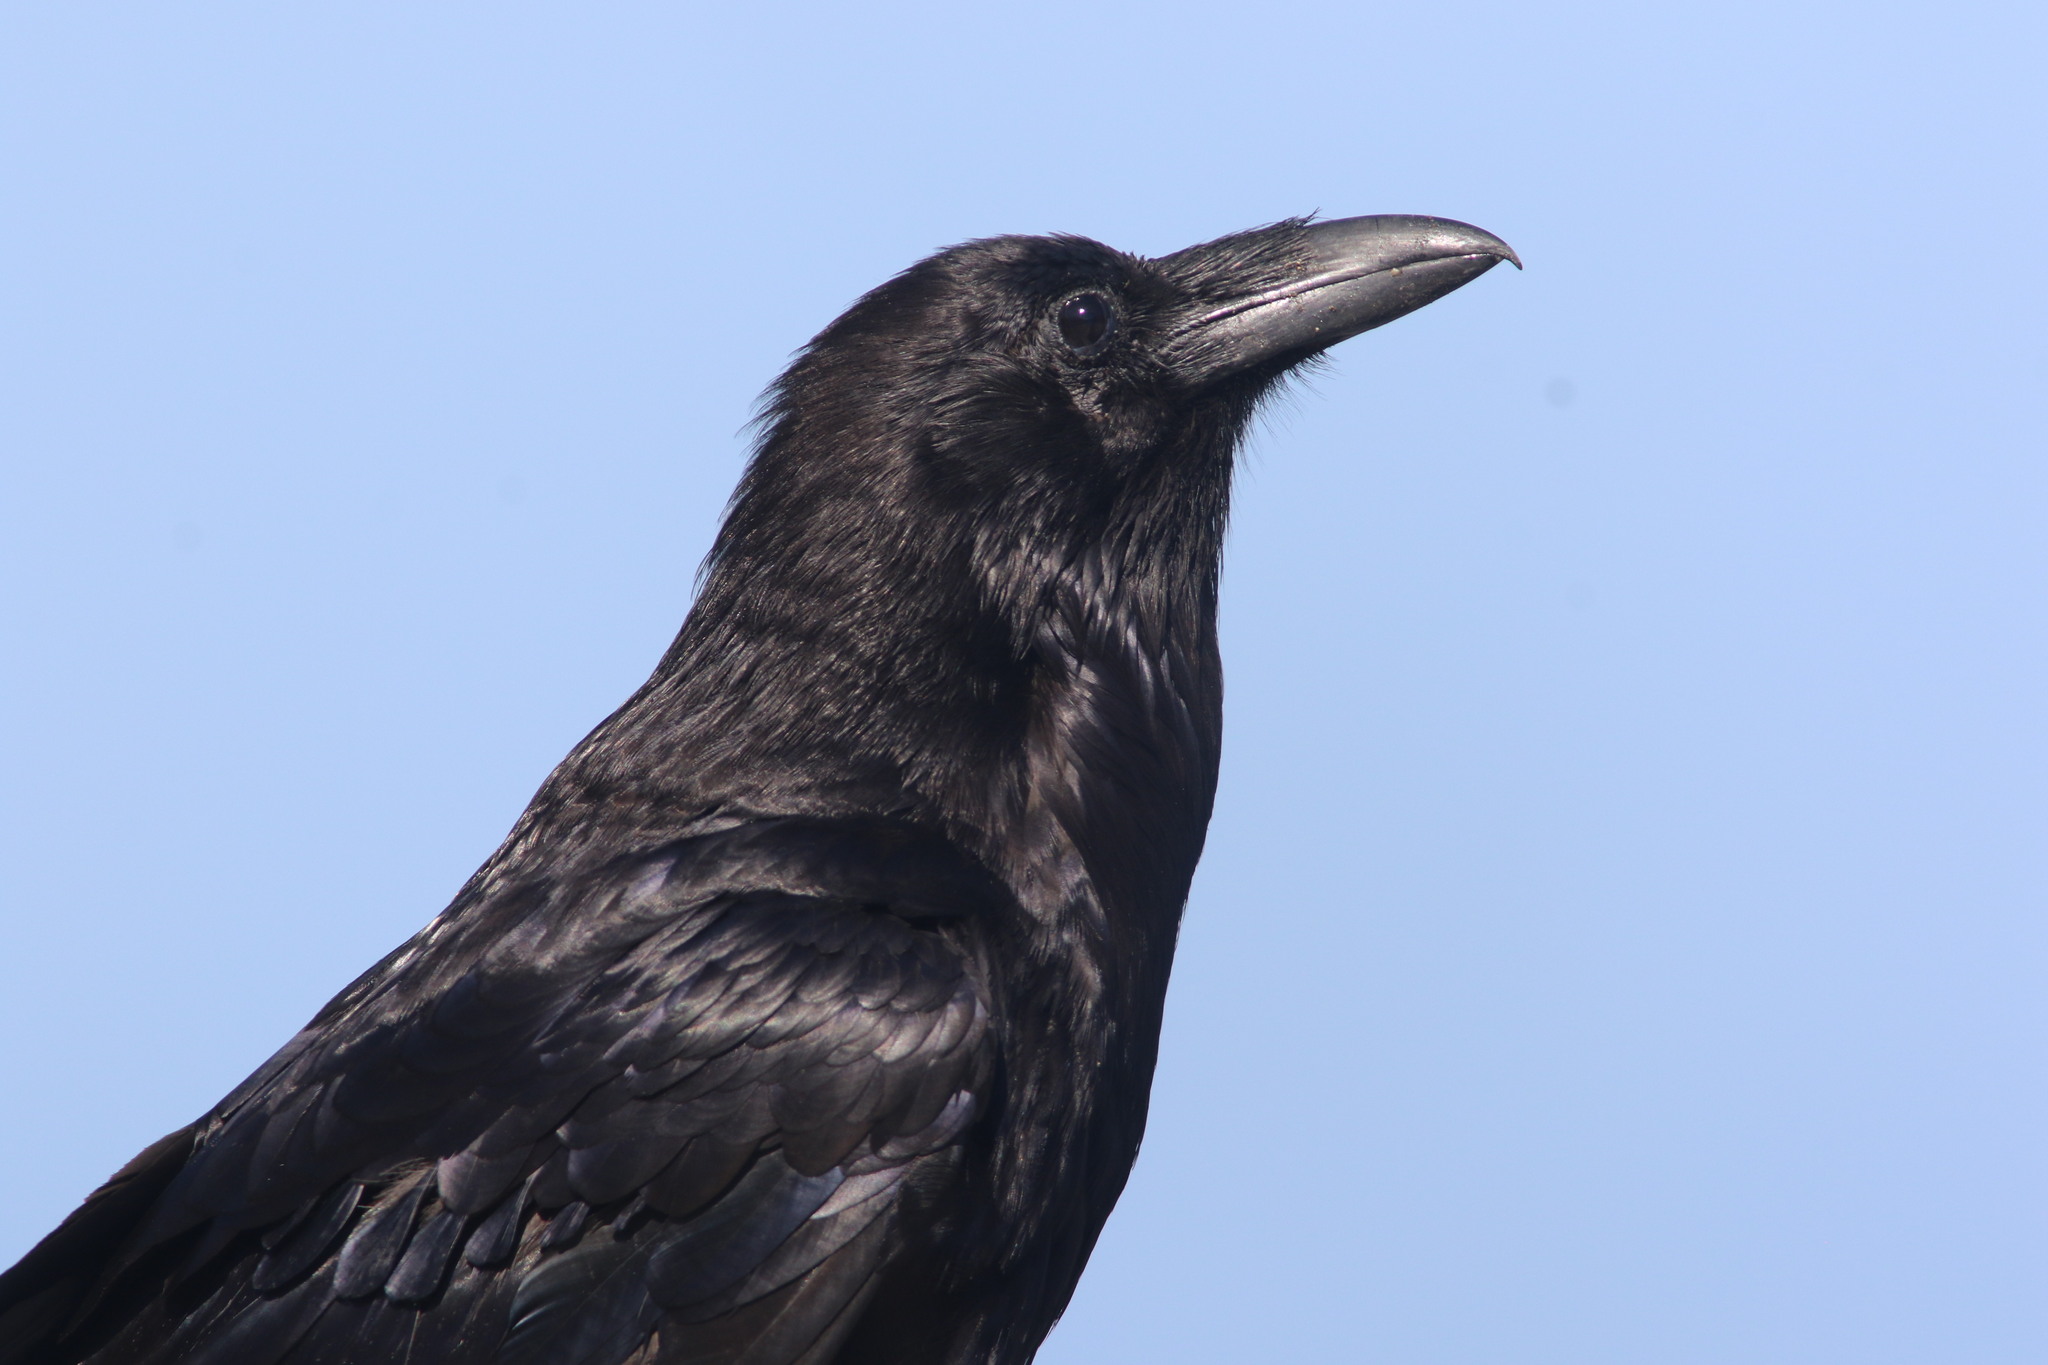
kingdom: Animalia
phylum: Chordata
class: Aves
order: Passeriformes
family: Corvidae
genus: Corvus
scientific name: Corvus corax
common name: Common raven
